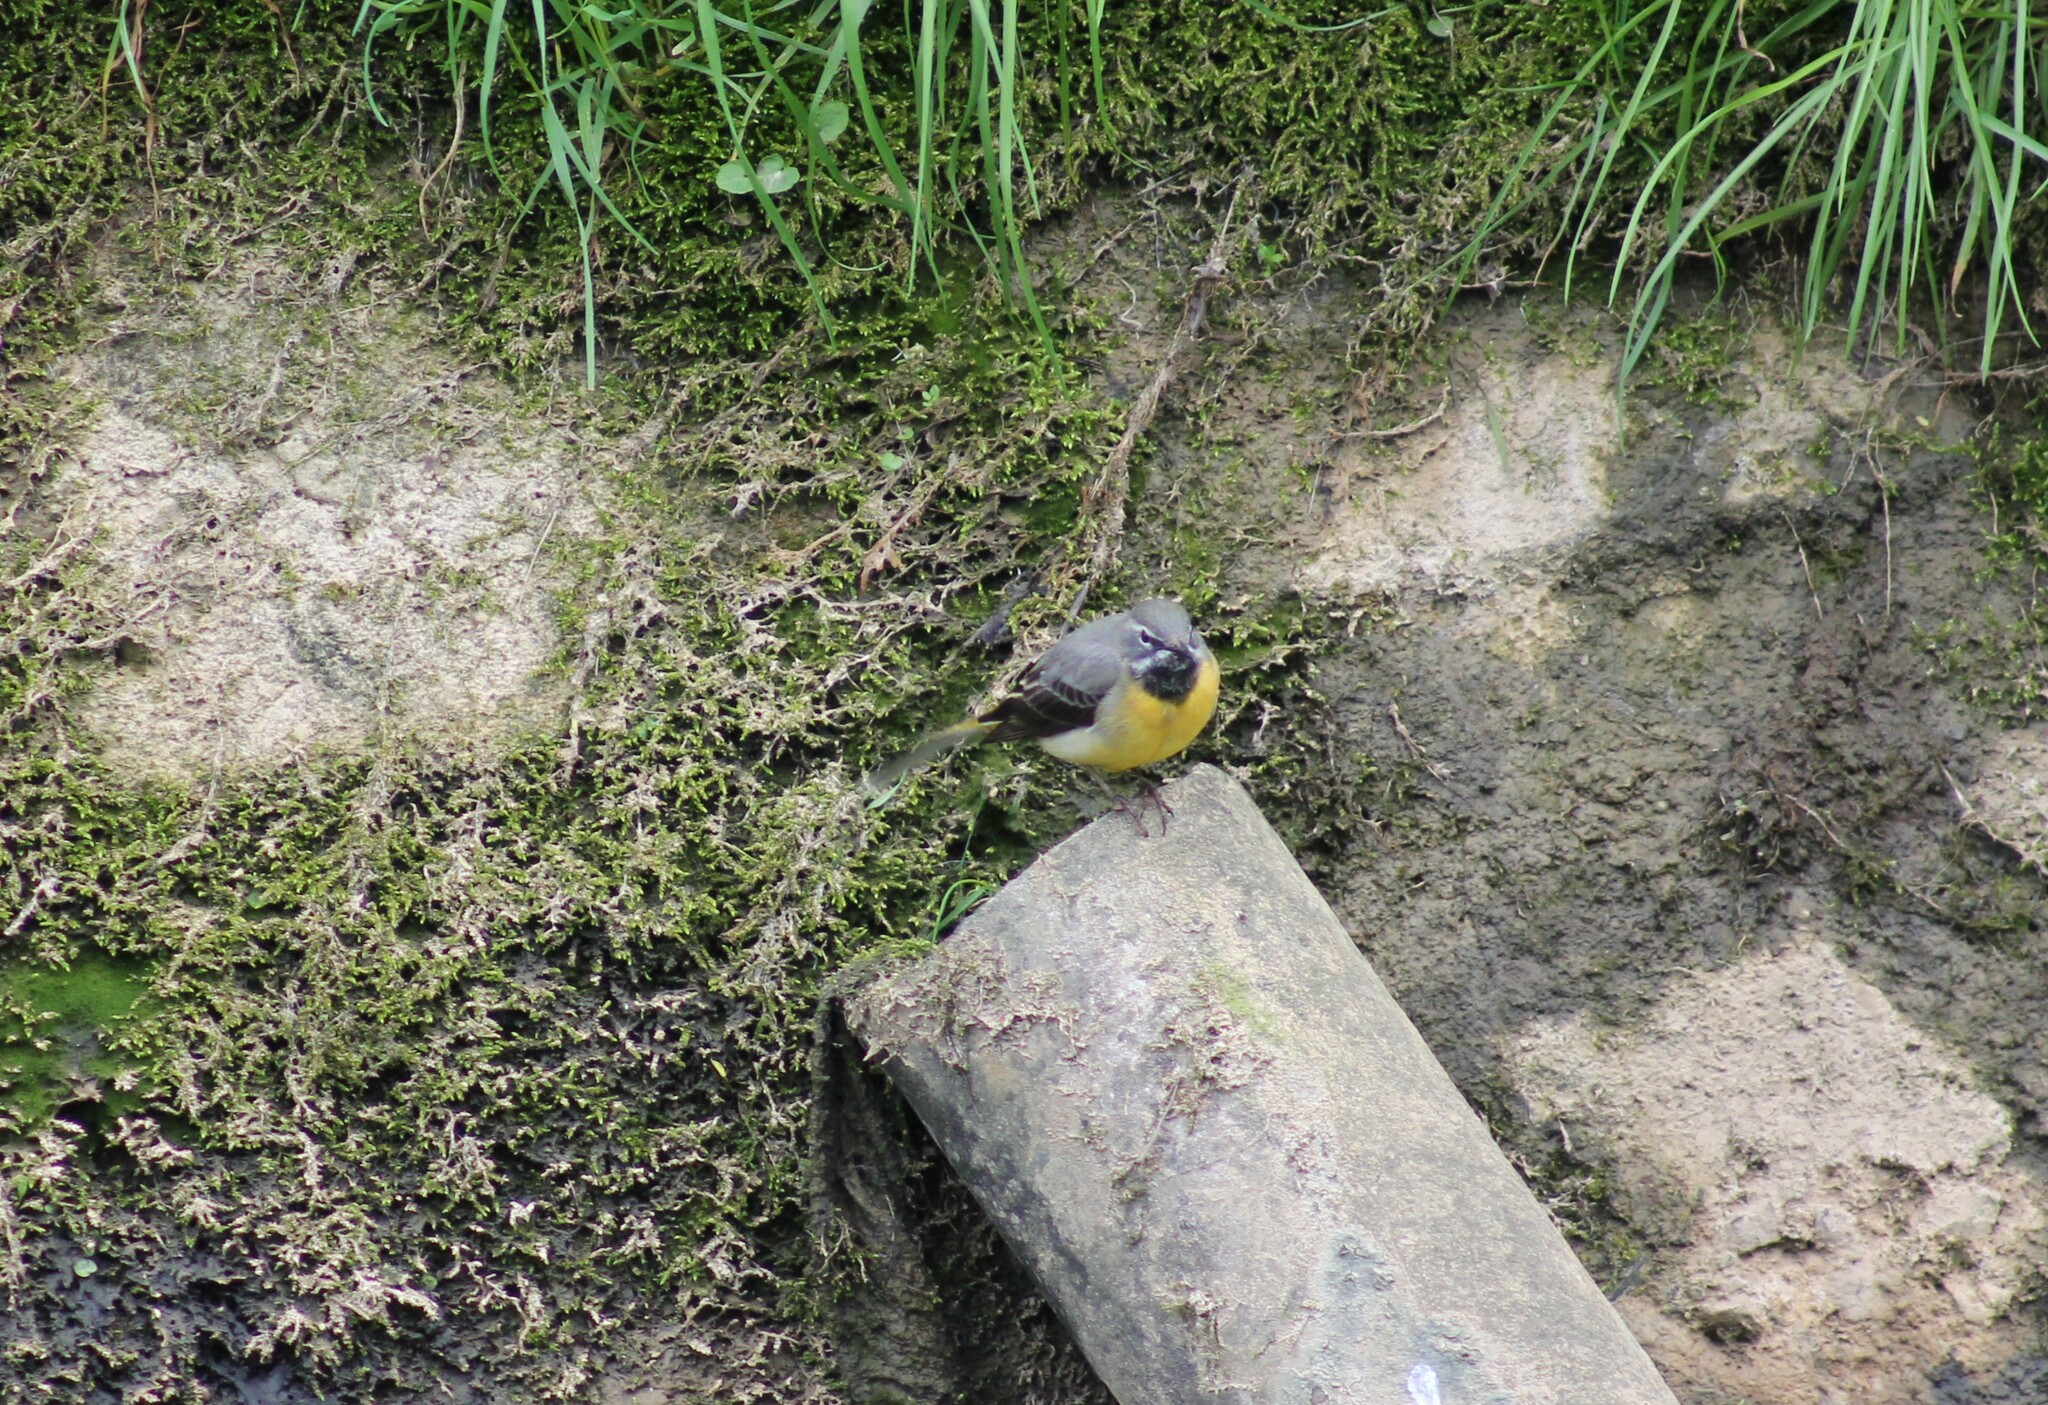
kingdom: Animalia
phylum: Chordata
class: Aves
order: Passeriformes
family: Motacillidae
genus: Motacilla
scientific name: Motacilla cinerea
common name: Grey wagtail
